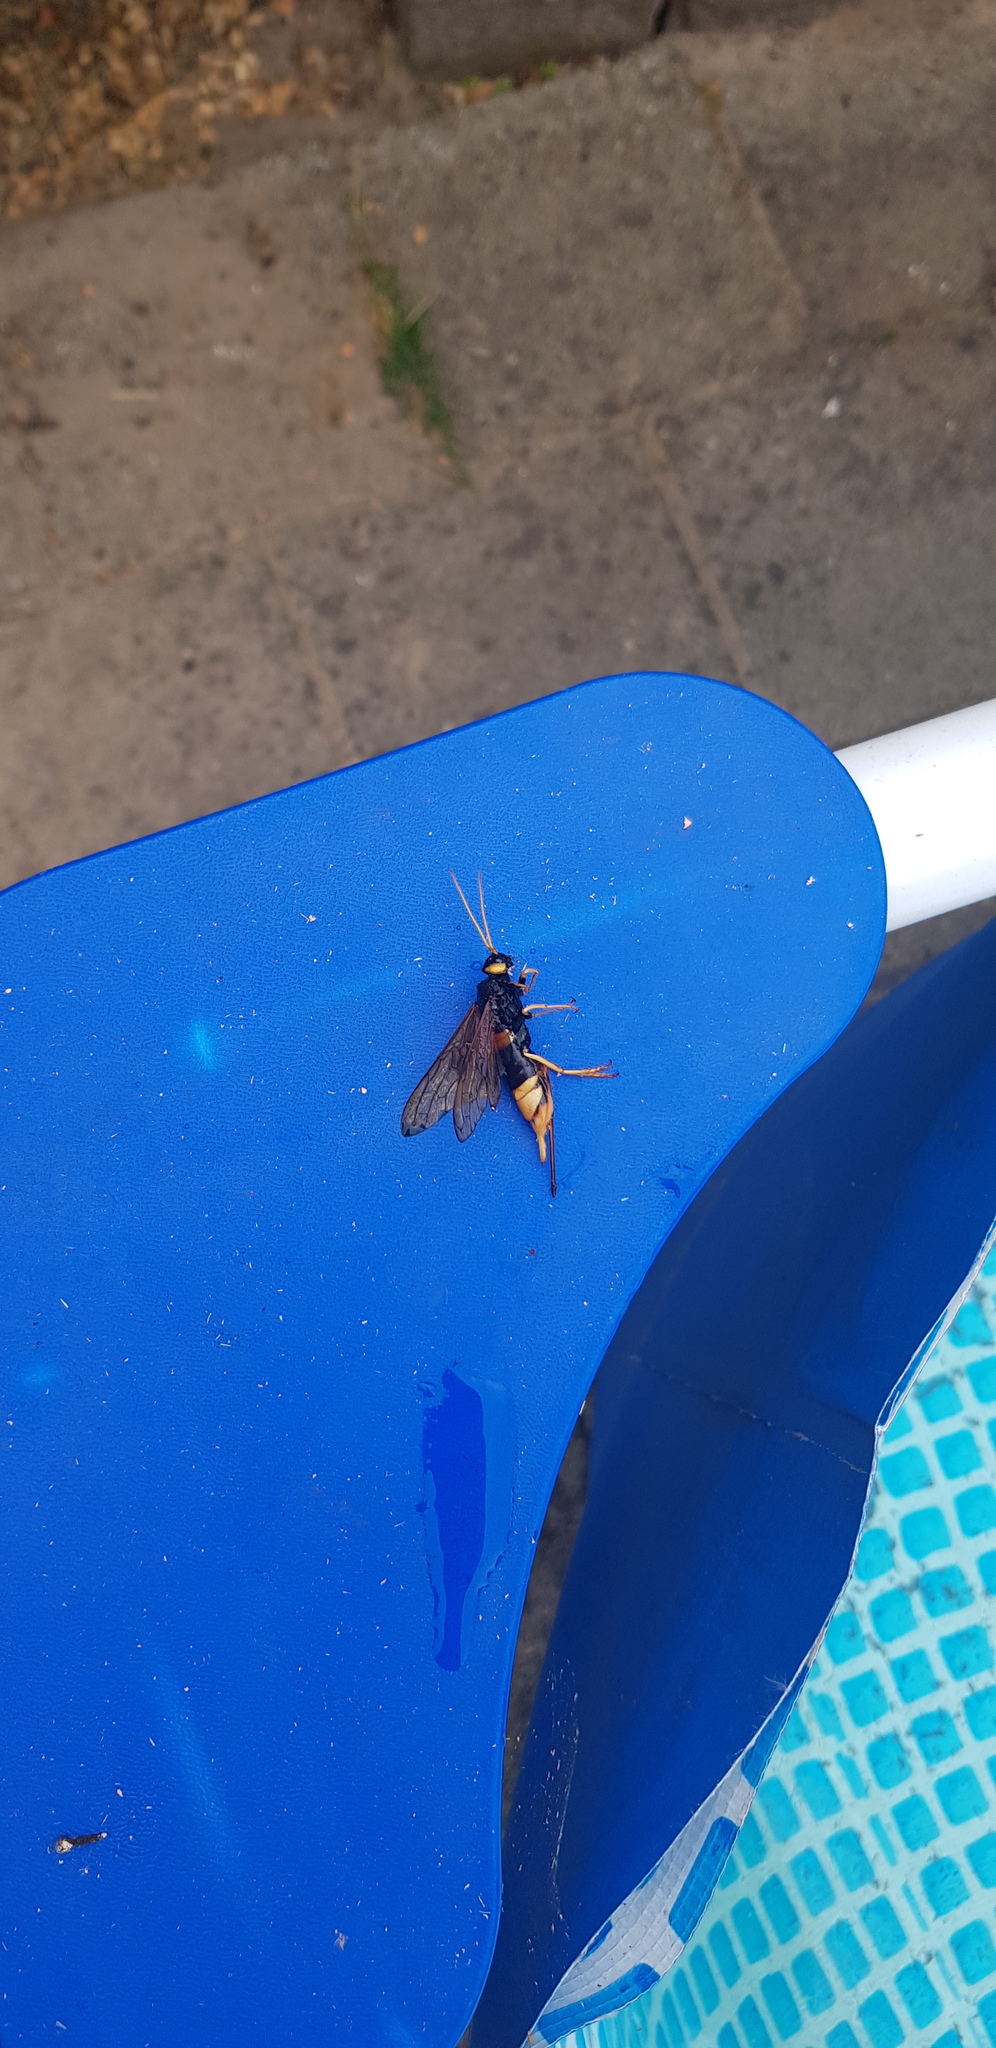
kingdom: Animalia
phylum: Arthropoda
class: Insecta
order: Hymenoptera
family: Siricidae
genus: Urocerus
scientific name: Urocerus gigas
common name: Giant woodwasp
